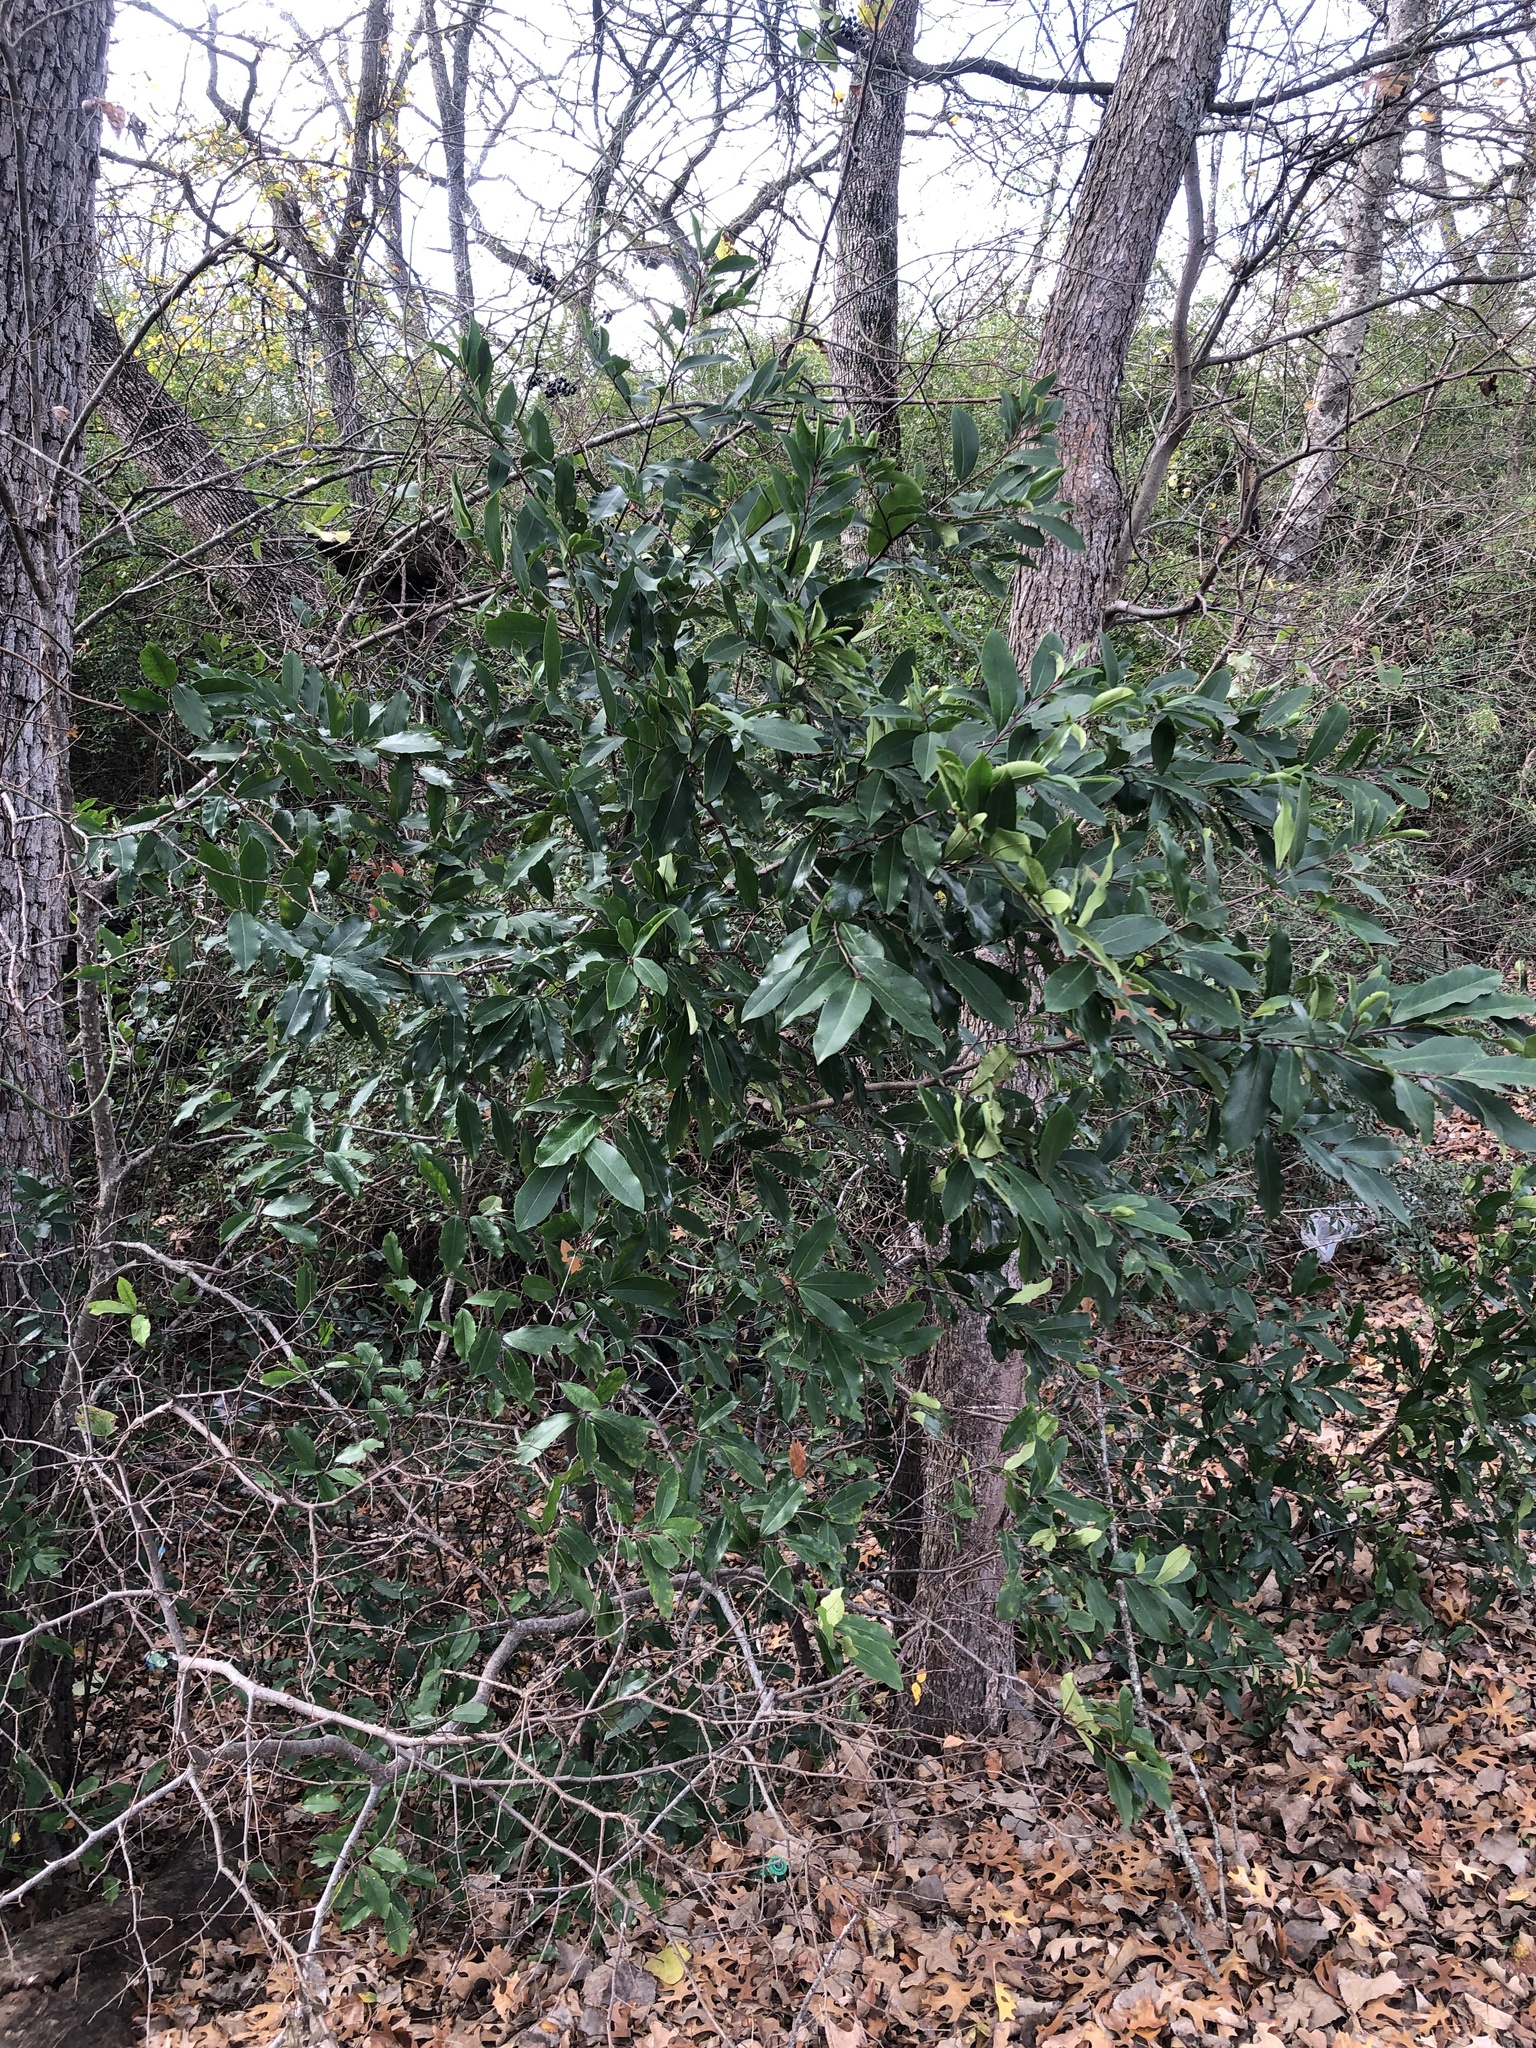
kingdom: Plantae
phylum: Tracheophyta
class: Magnoliopsida
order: Rosales
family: Rosaceae
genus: Prunus
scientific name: Prunus caroliniana
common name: Carolina laurel cherry
